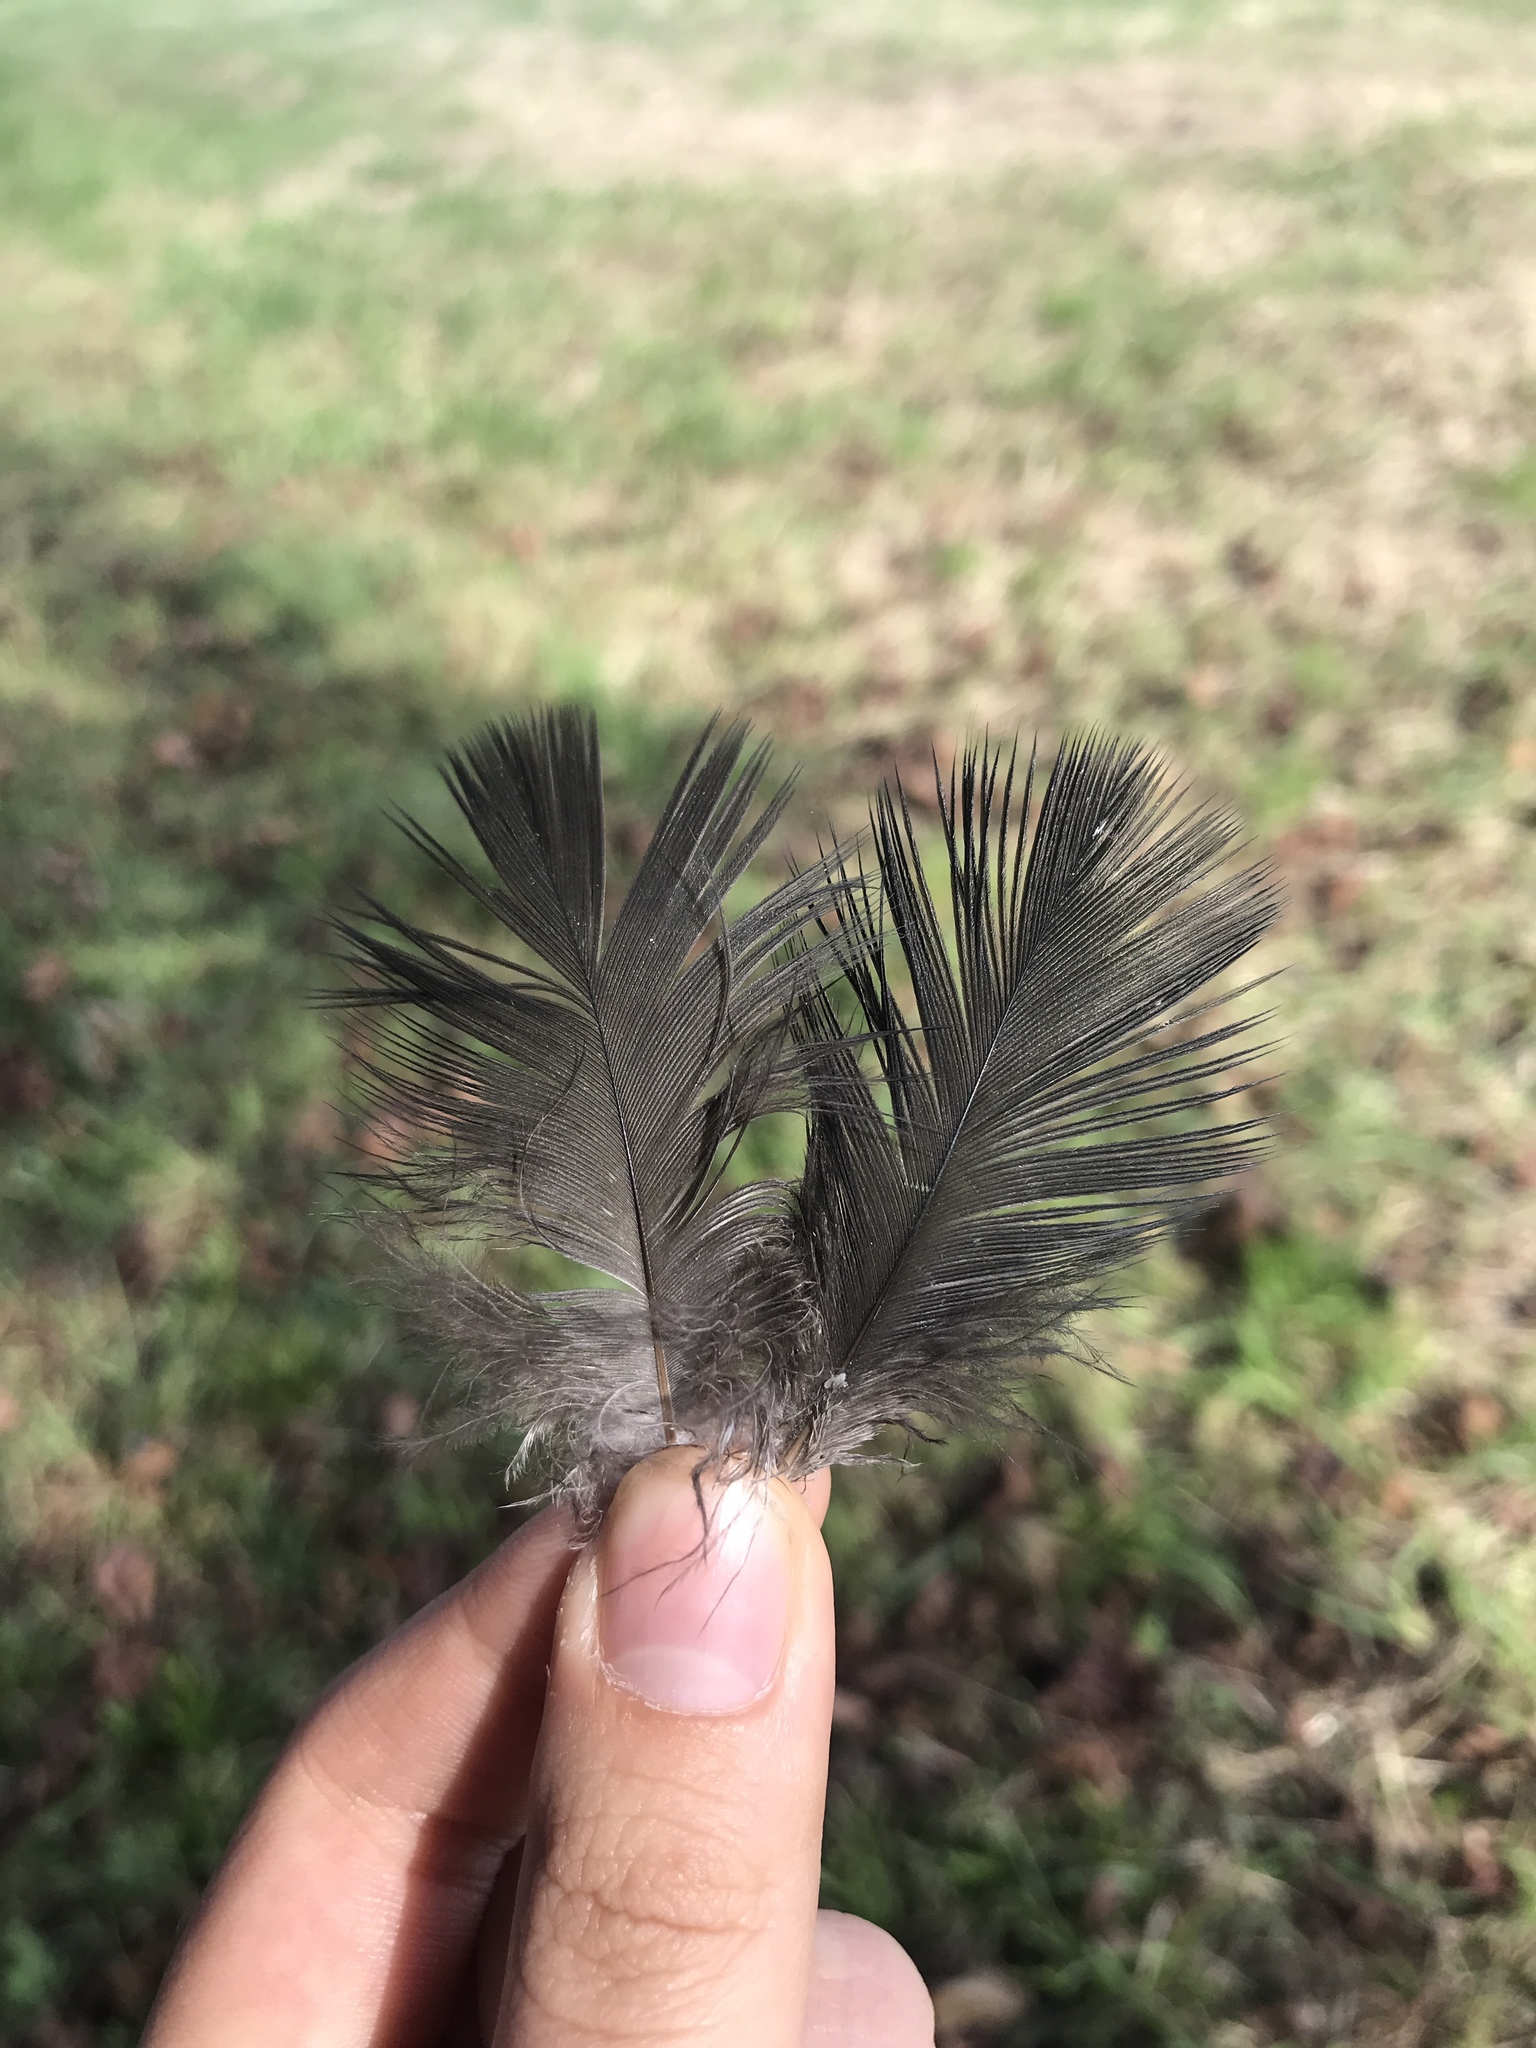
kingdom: Animalia
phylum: Chordata
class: Aves
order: Accipitriformes
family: Cathartidae
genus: Coragyps
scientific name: Coragyps atratus
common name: Black vulture
